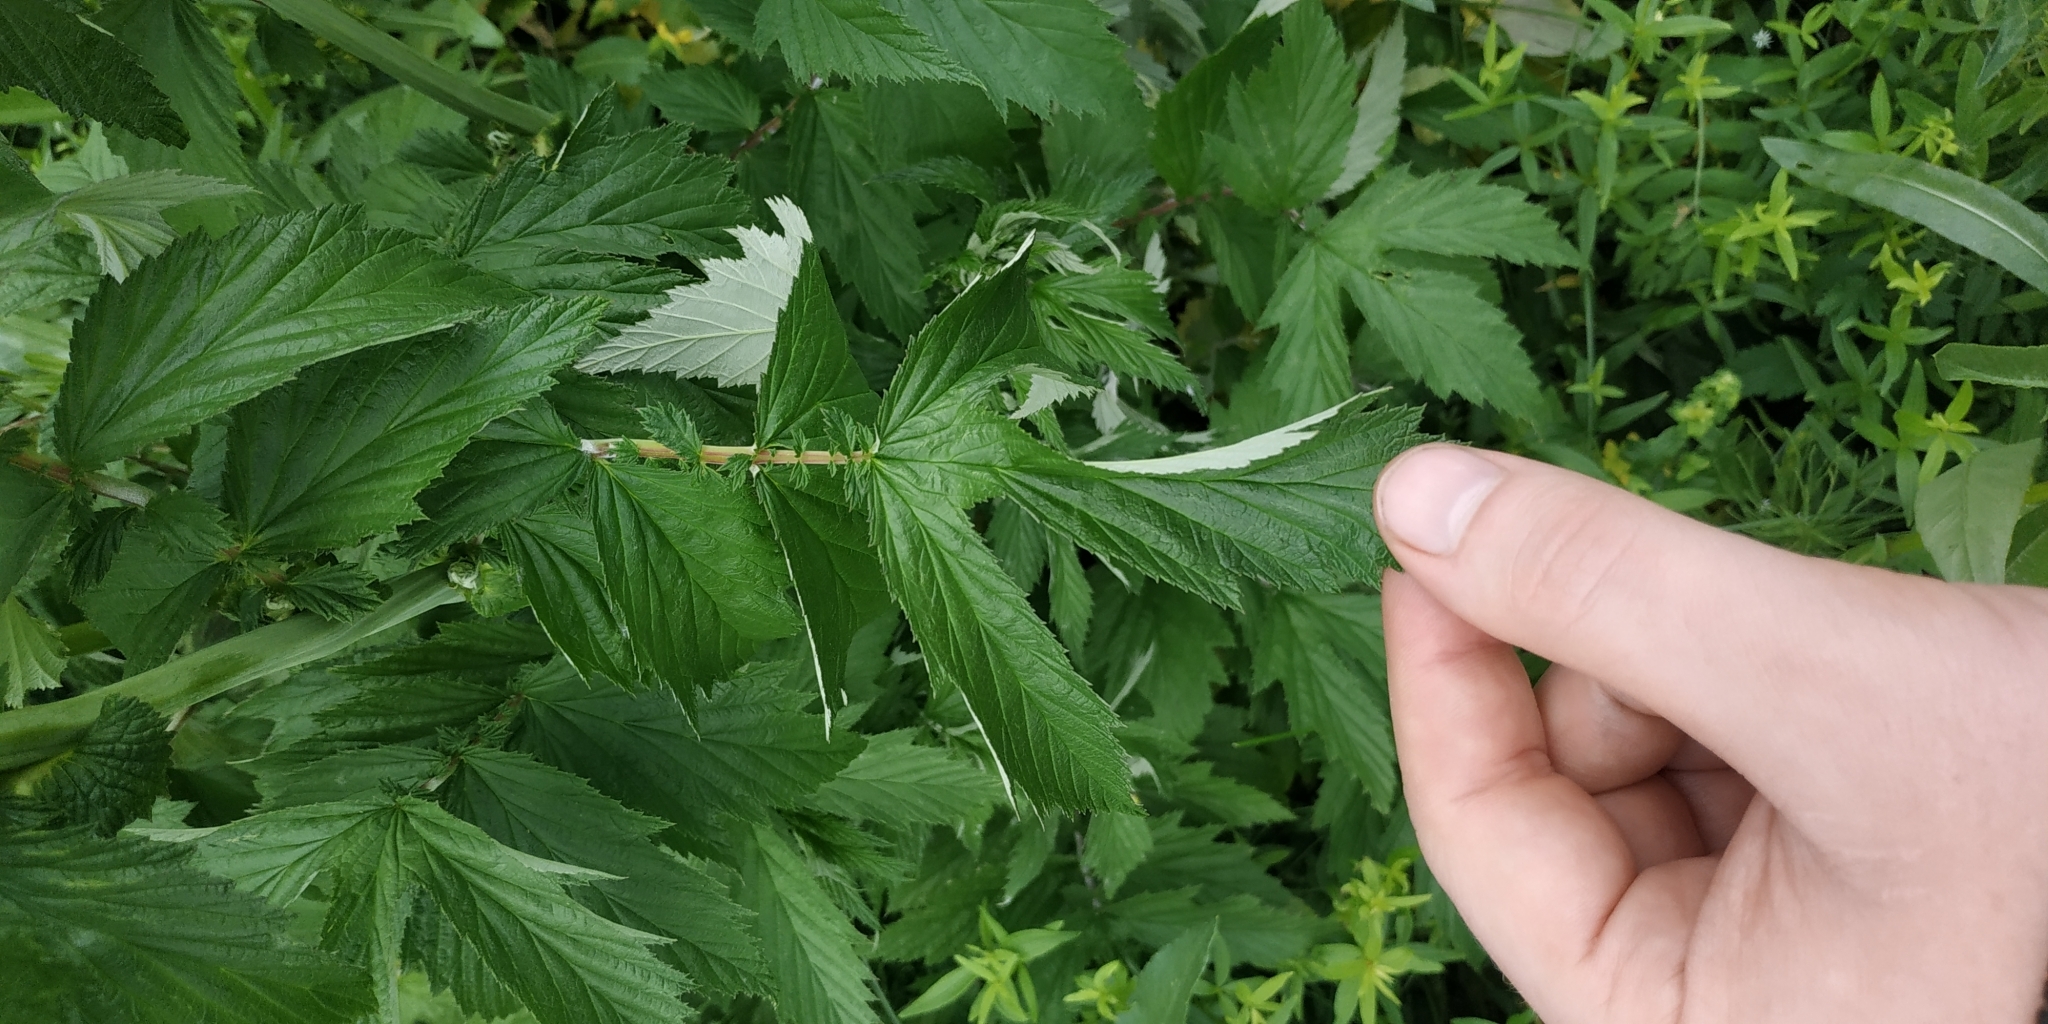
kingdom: Plantae
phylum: Tracheophyta
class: Magnoliopsida
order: Rosales
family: Rosaceae
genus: Filipendula
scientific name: Filipendula ulmaria
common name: Meadowsweet
